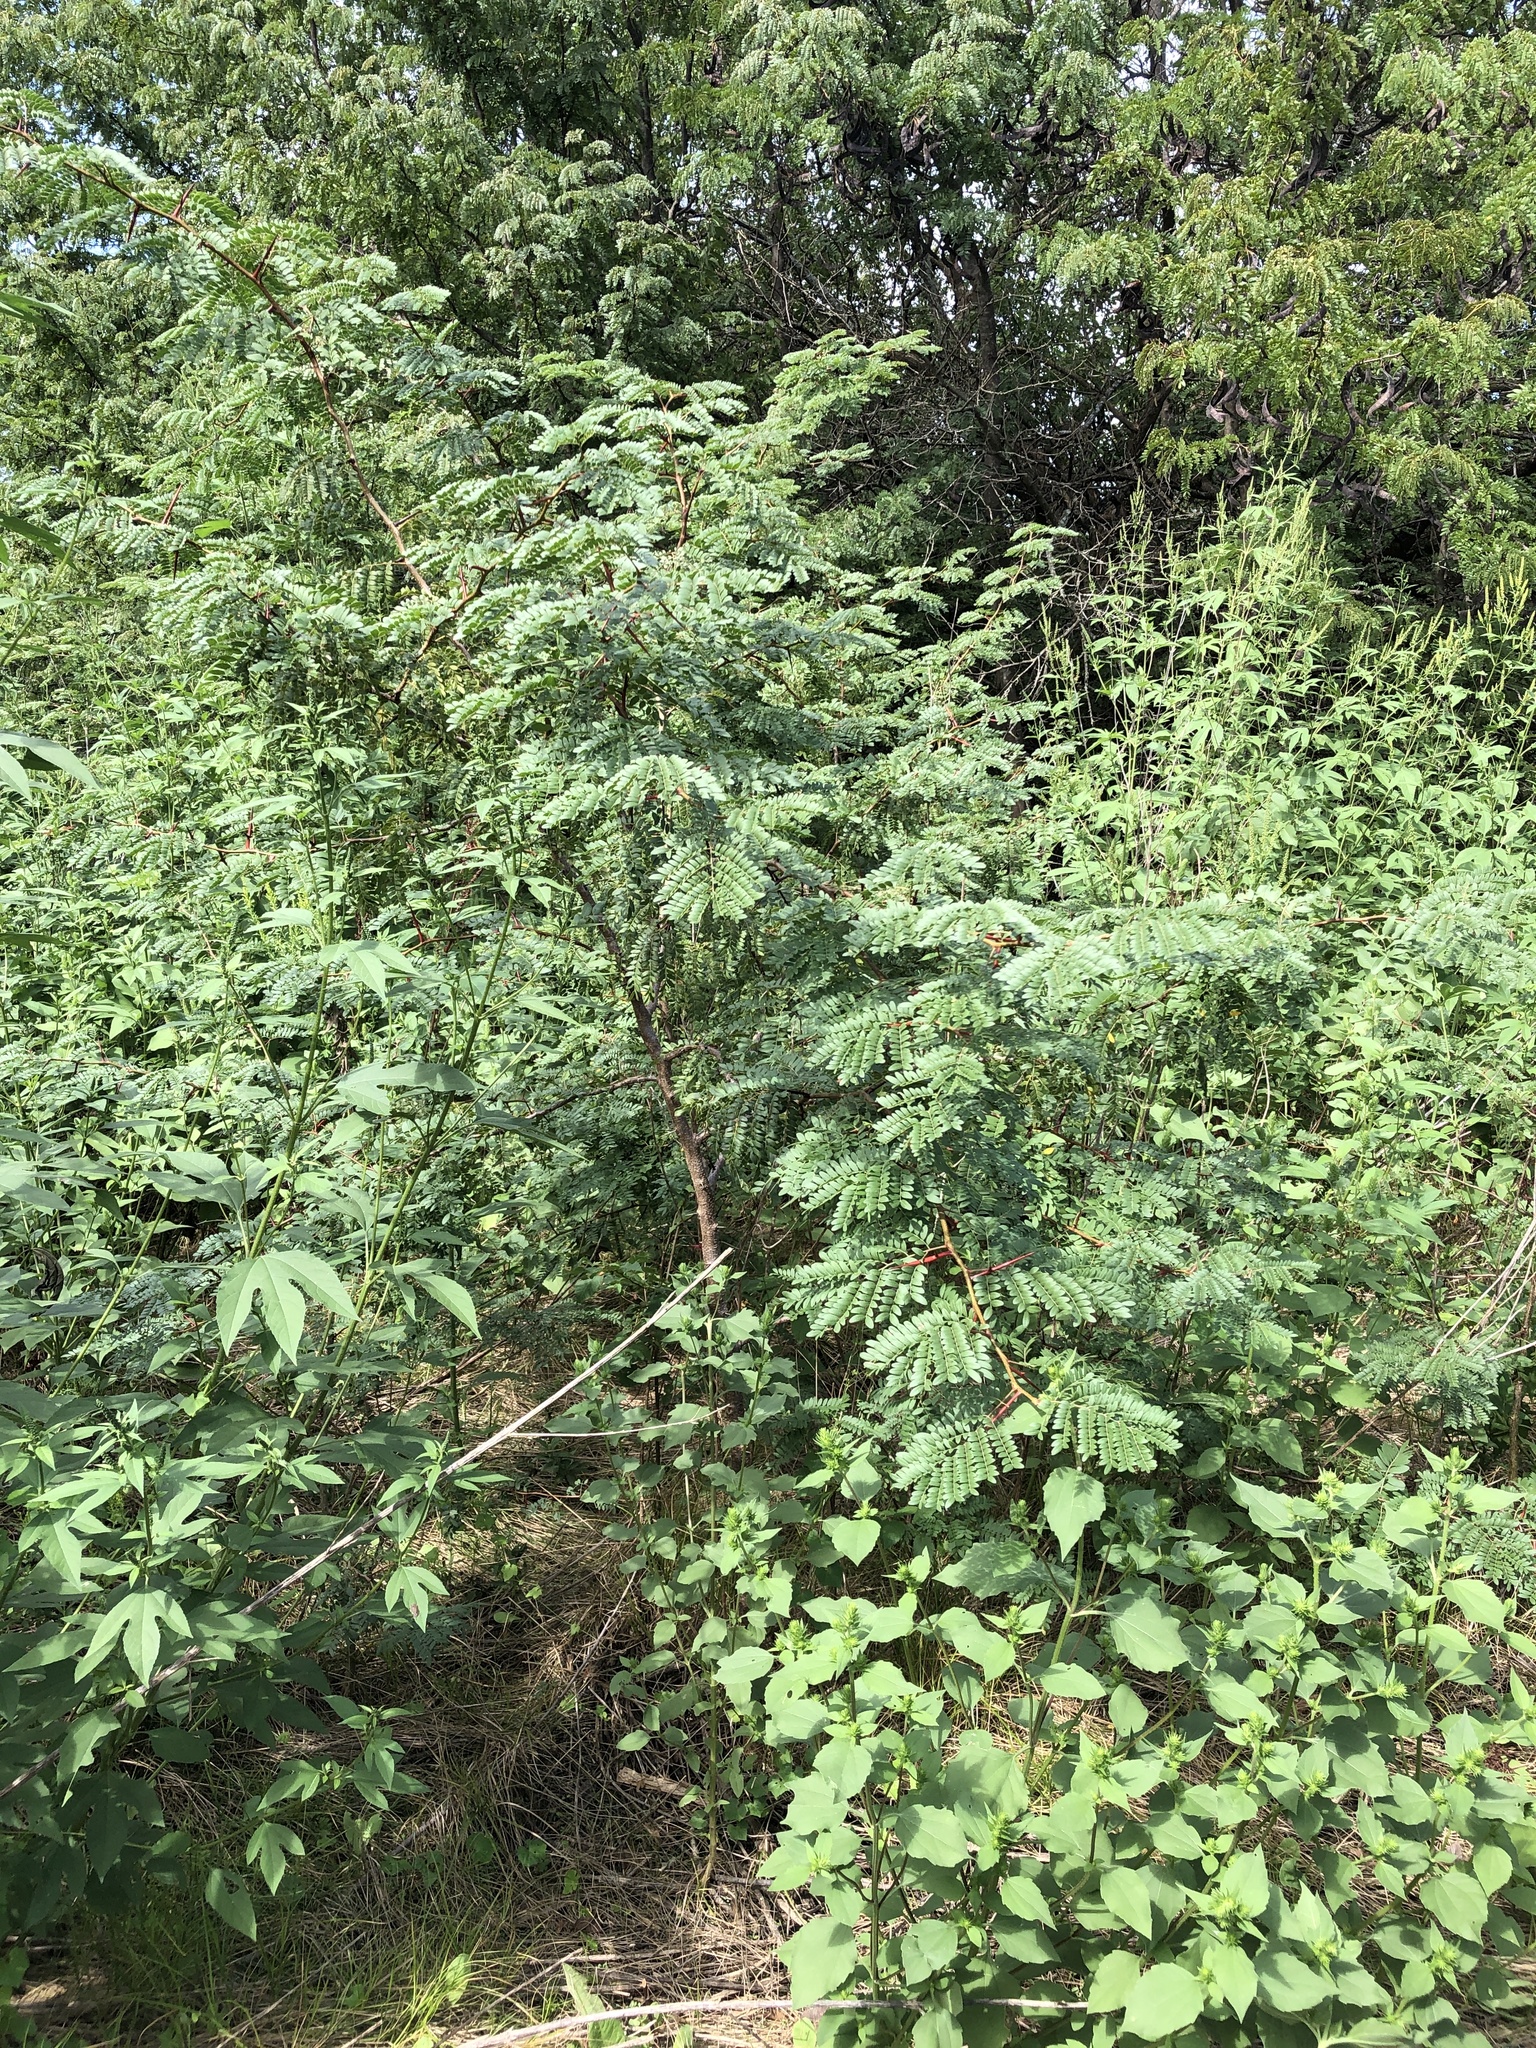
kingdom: Plantae
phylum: Tracheophyta
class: Magnoliopsida
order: Fabales
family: Fabaceae
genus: Gleditsia
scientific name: Gleditsia triacanthos
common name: Common honeylocust
